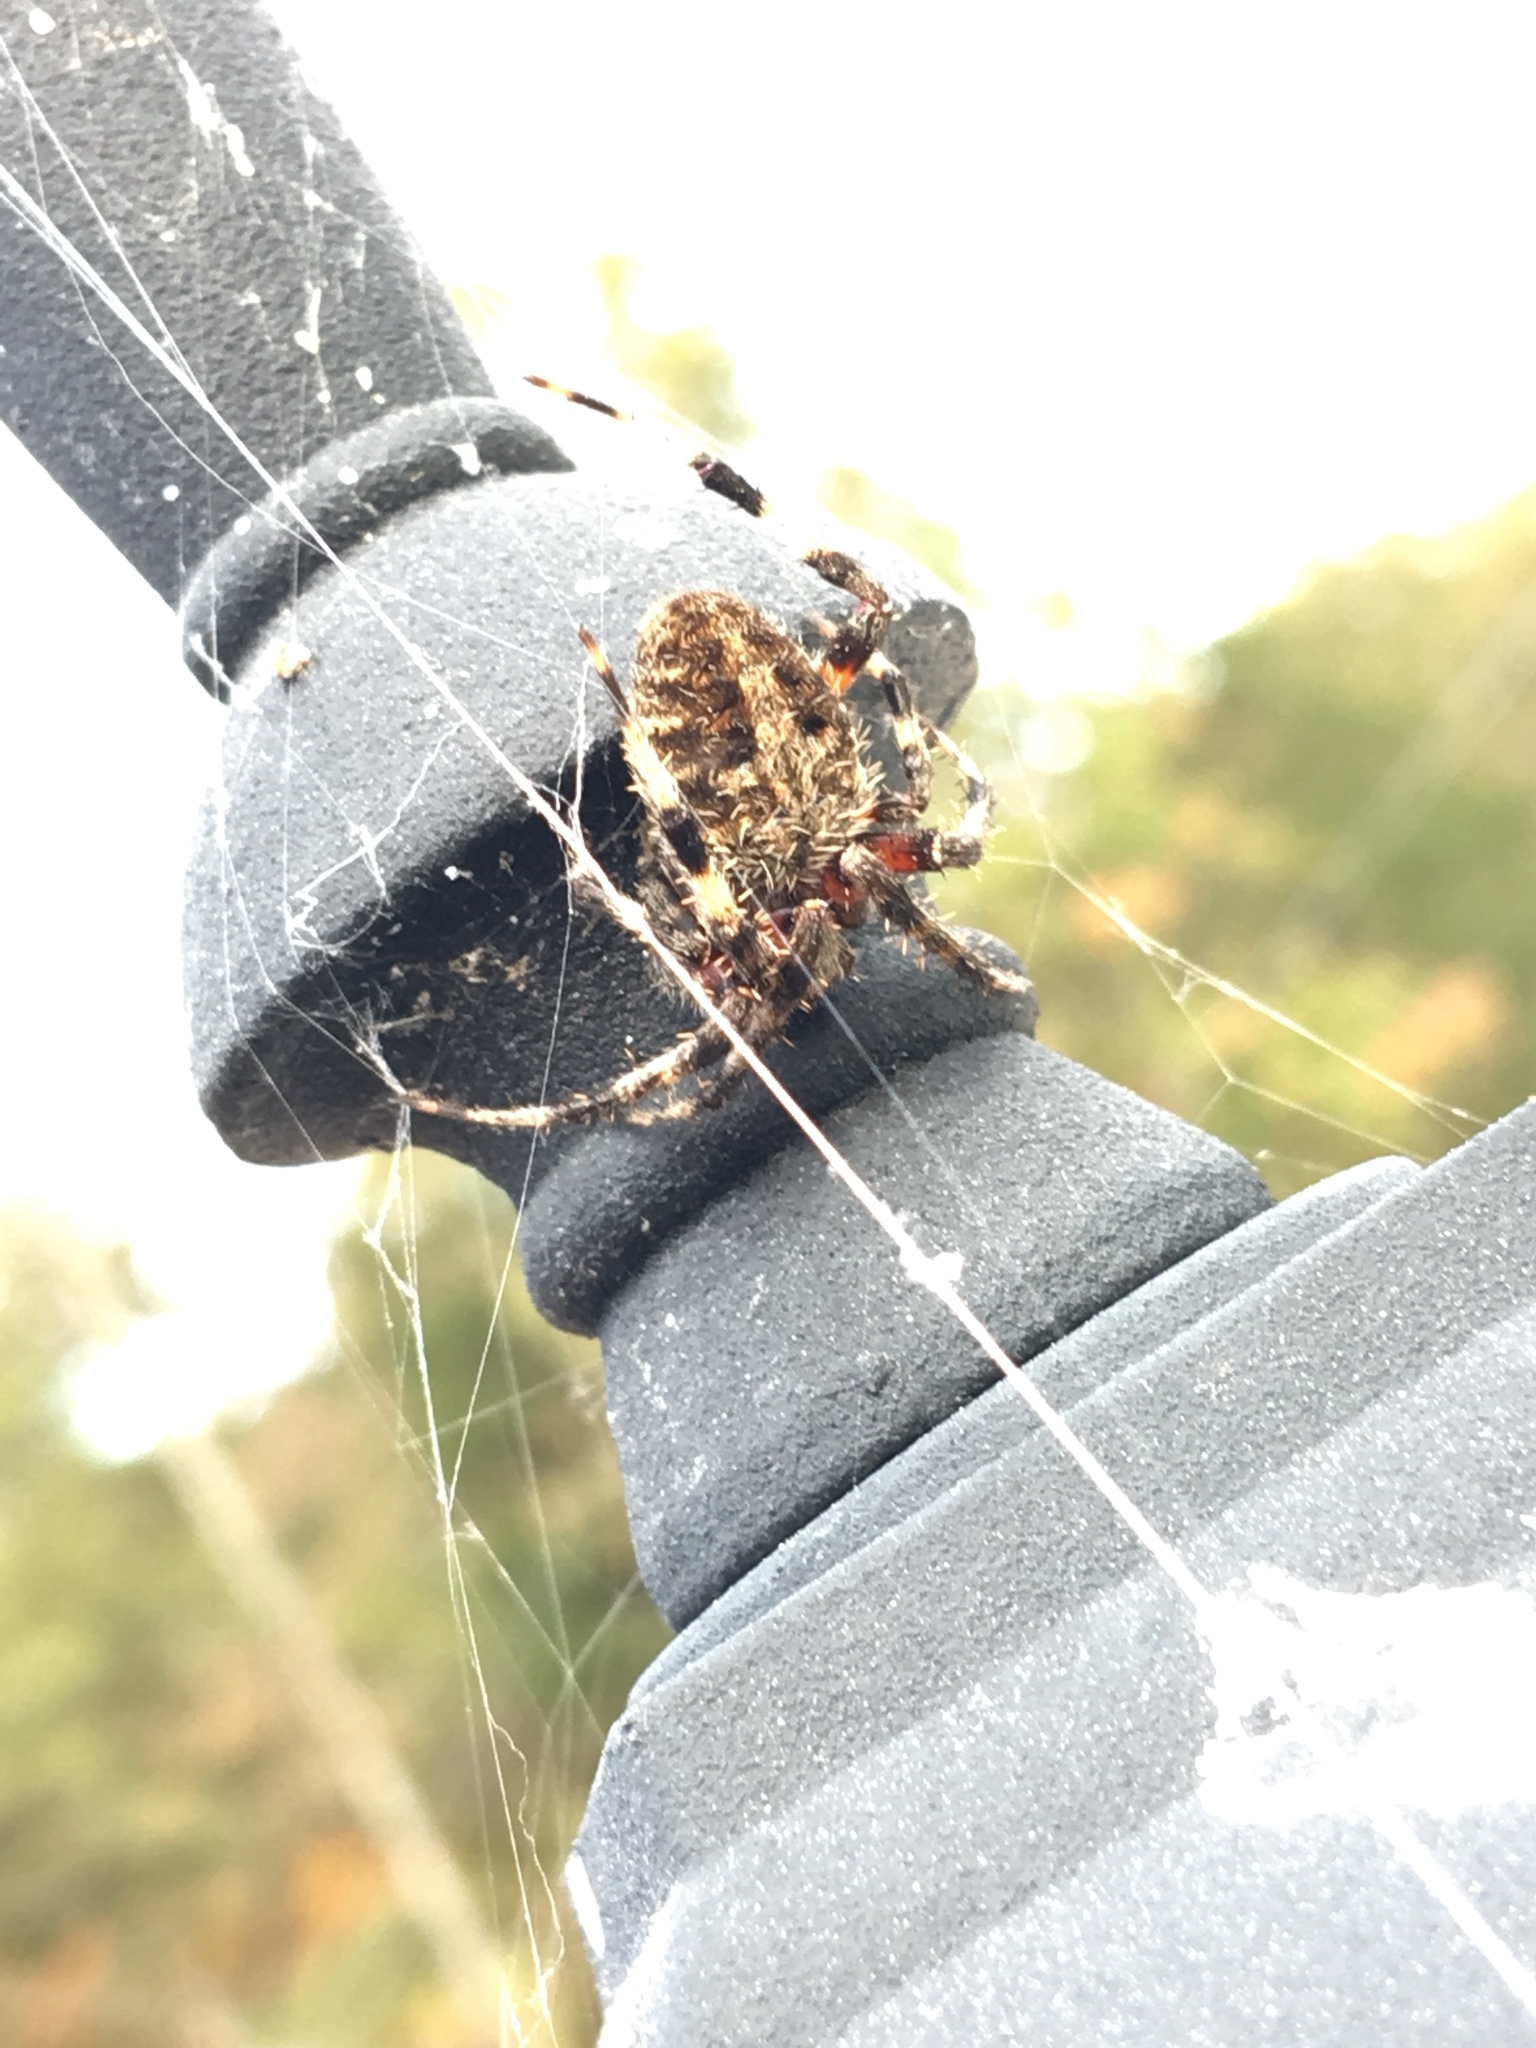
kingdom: Animalia
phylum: Arthropoda
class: Arachnida
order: Araneae
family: Araneidae
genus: Neoscona
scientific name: Neoscona crucifera
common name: Spotted orbweaver
